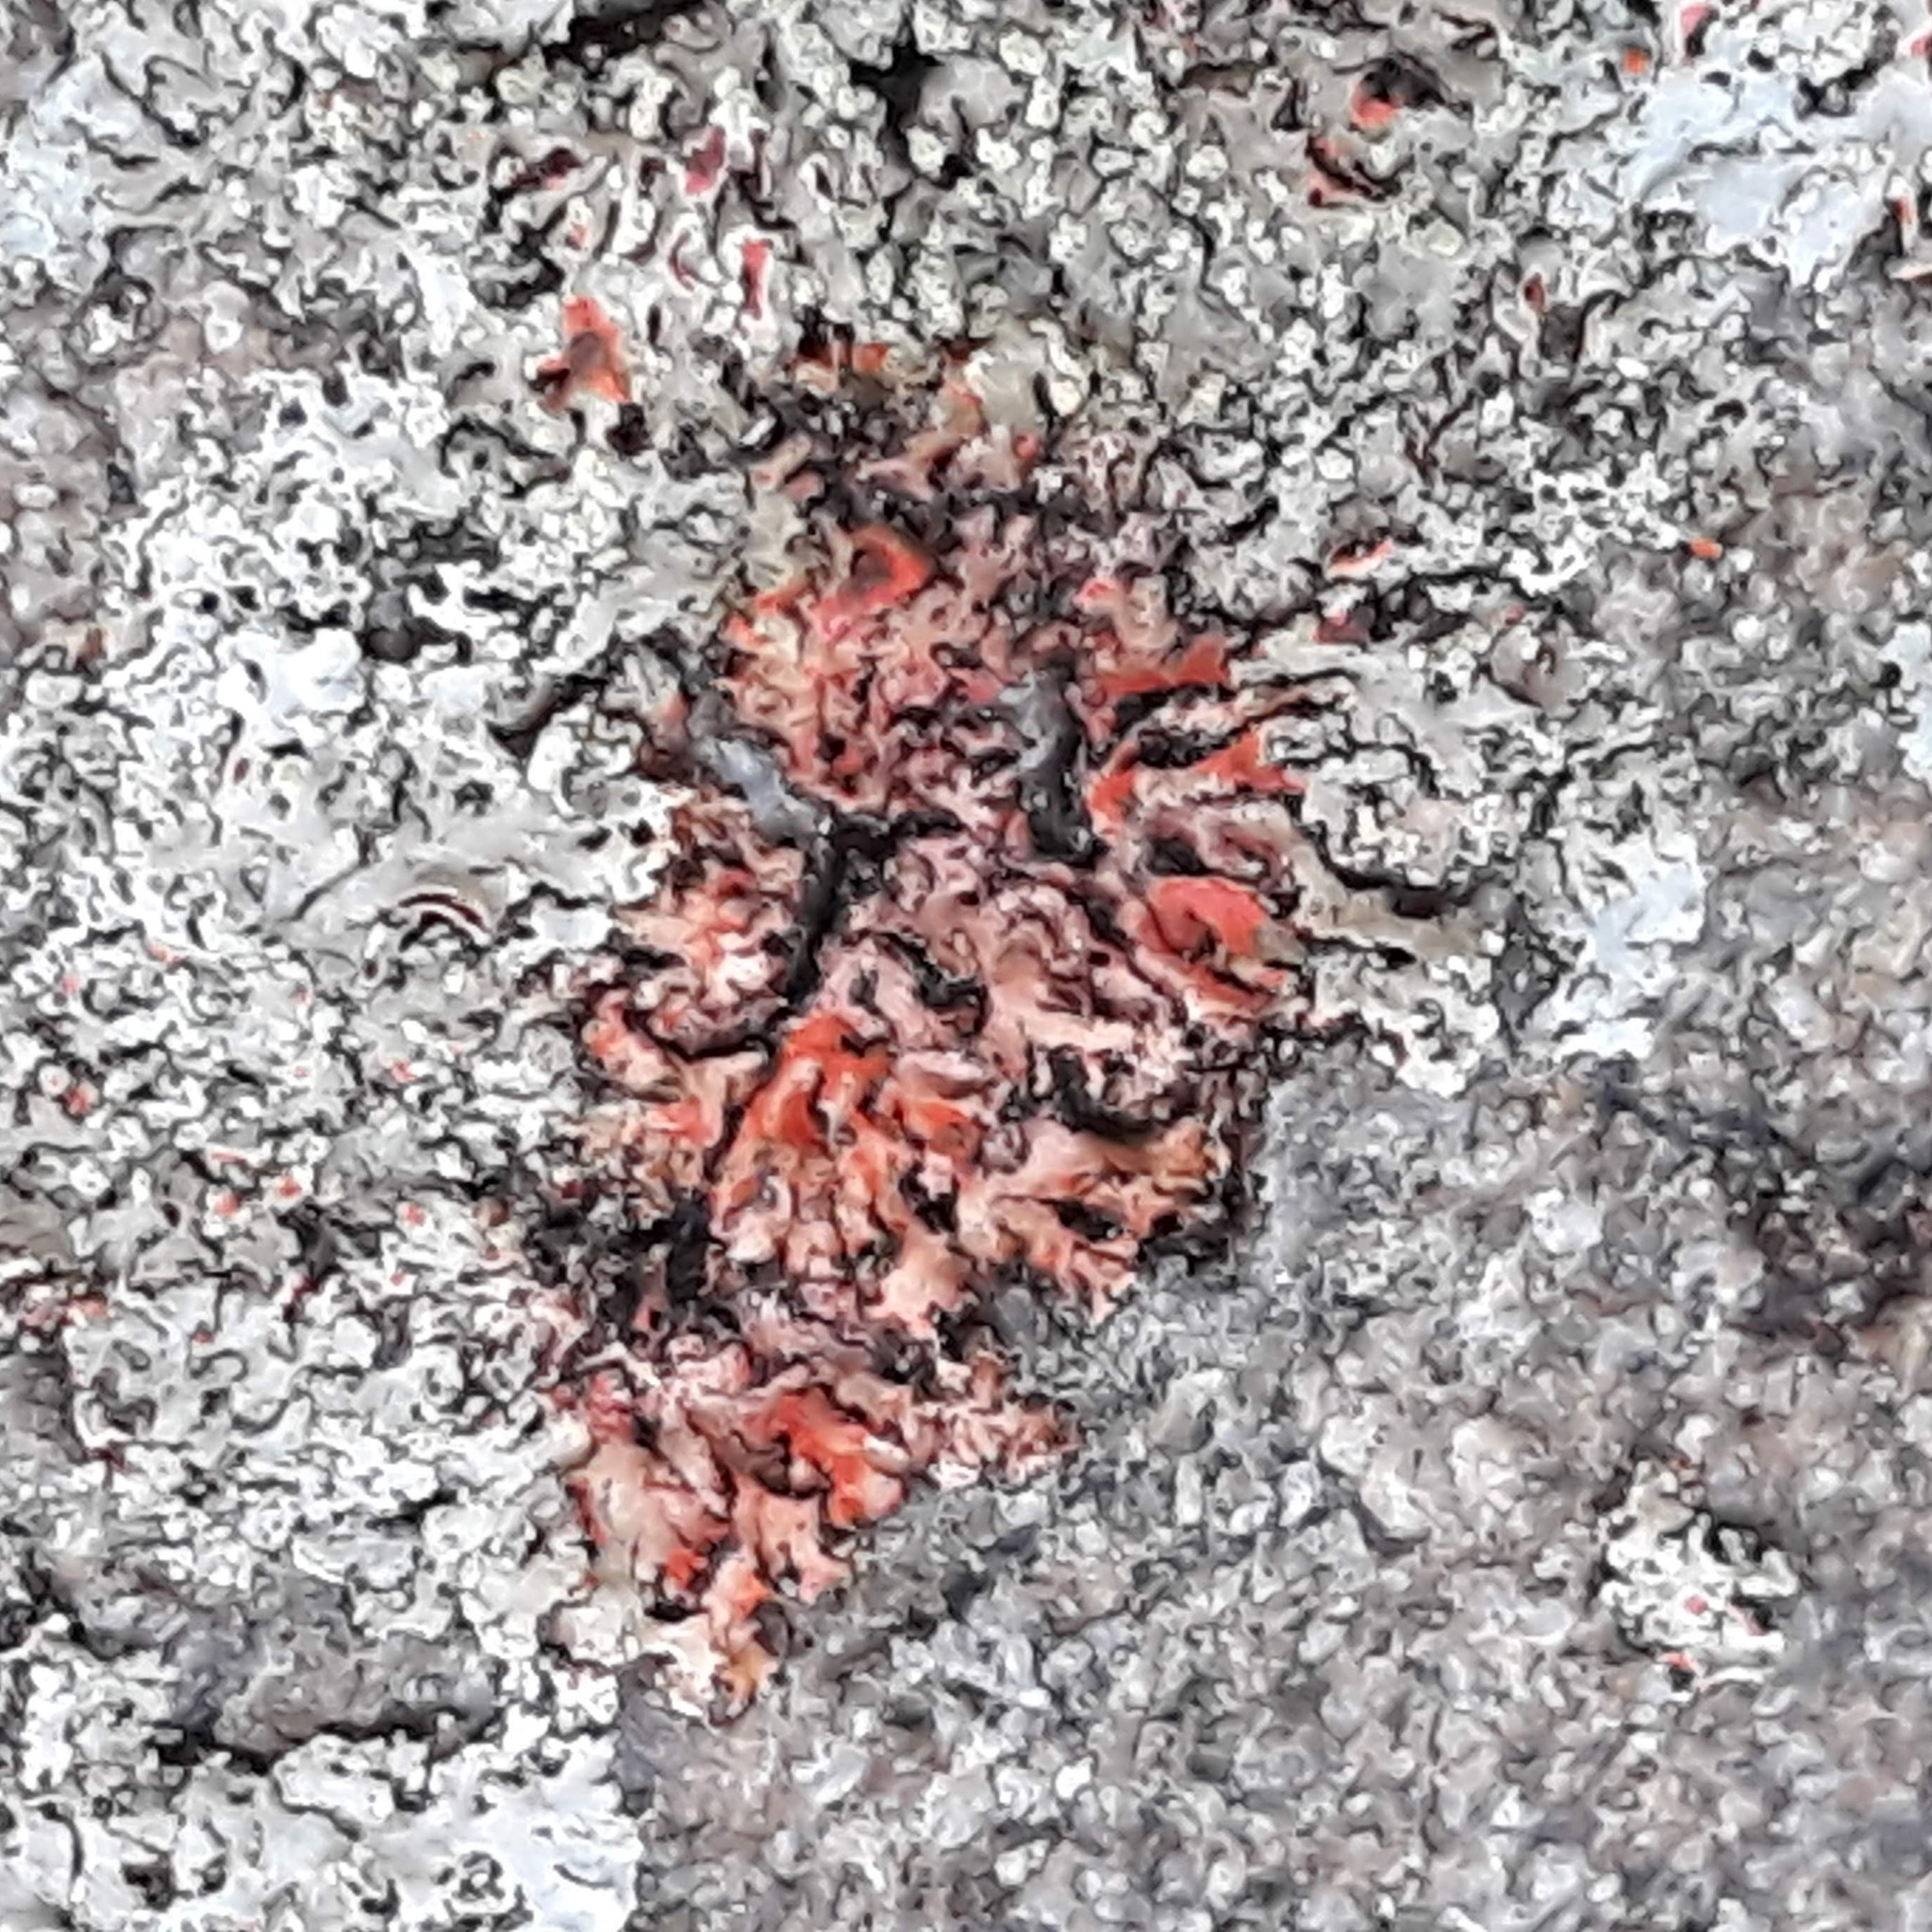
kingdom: Fungi
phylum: Ascomycota
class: Lecanoromycetes
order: Caliciales
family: Physciaceae
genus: Phaeophyscia
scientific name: Phaeophyscia rubropulchra
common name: Orange-cored shadow lichen
